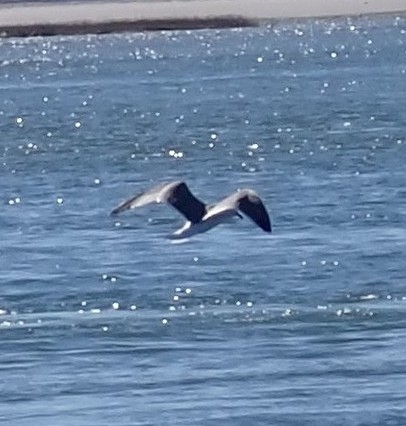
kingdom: Animalia
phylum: Chordata
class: Aves
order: Charadriiformes
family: Laridae
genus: Leucophaeus
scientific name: Leucophaeus atricilla
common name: Laughing gull
